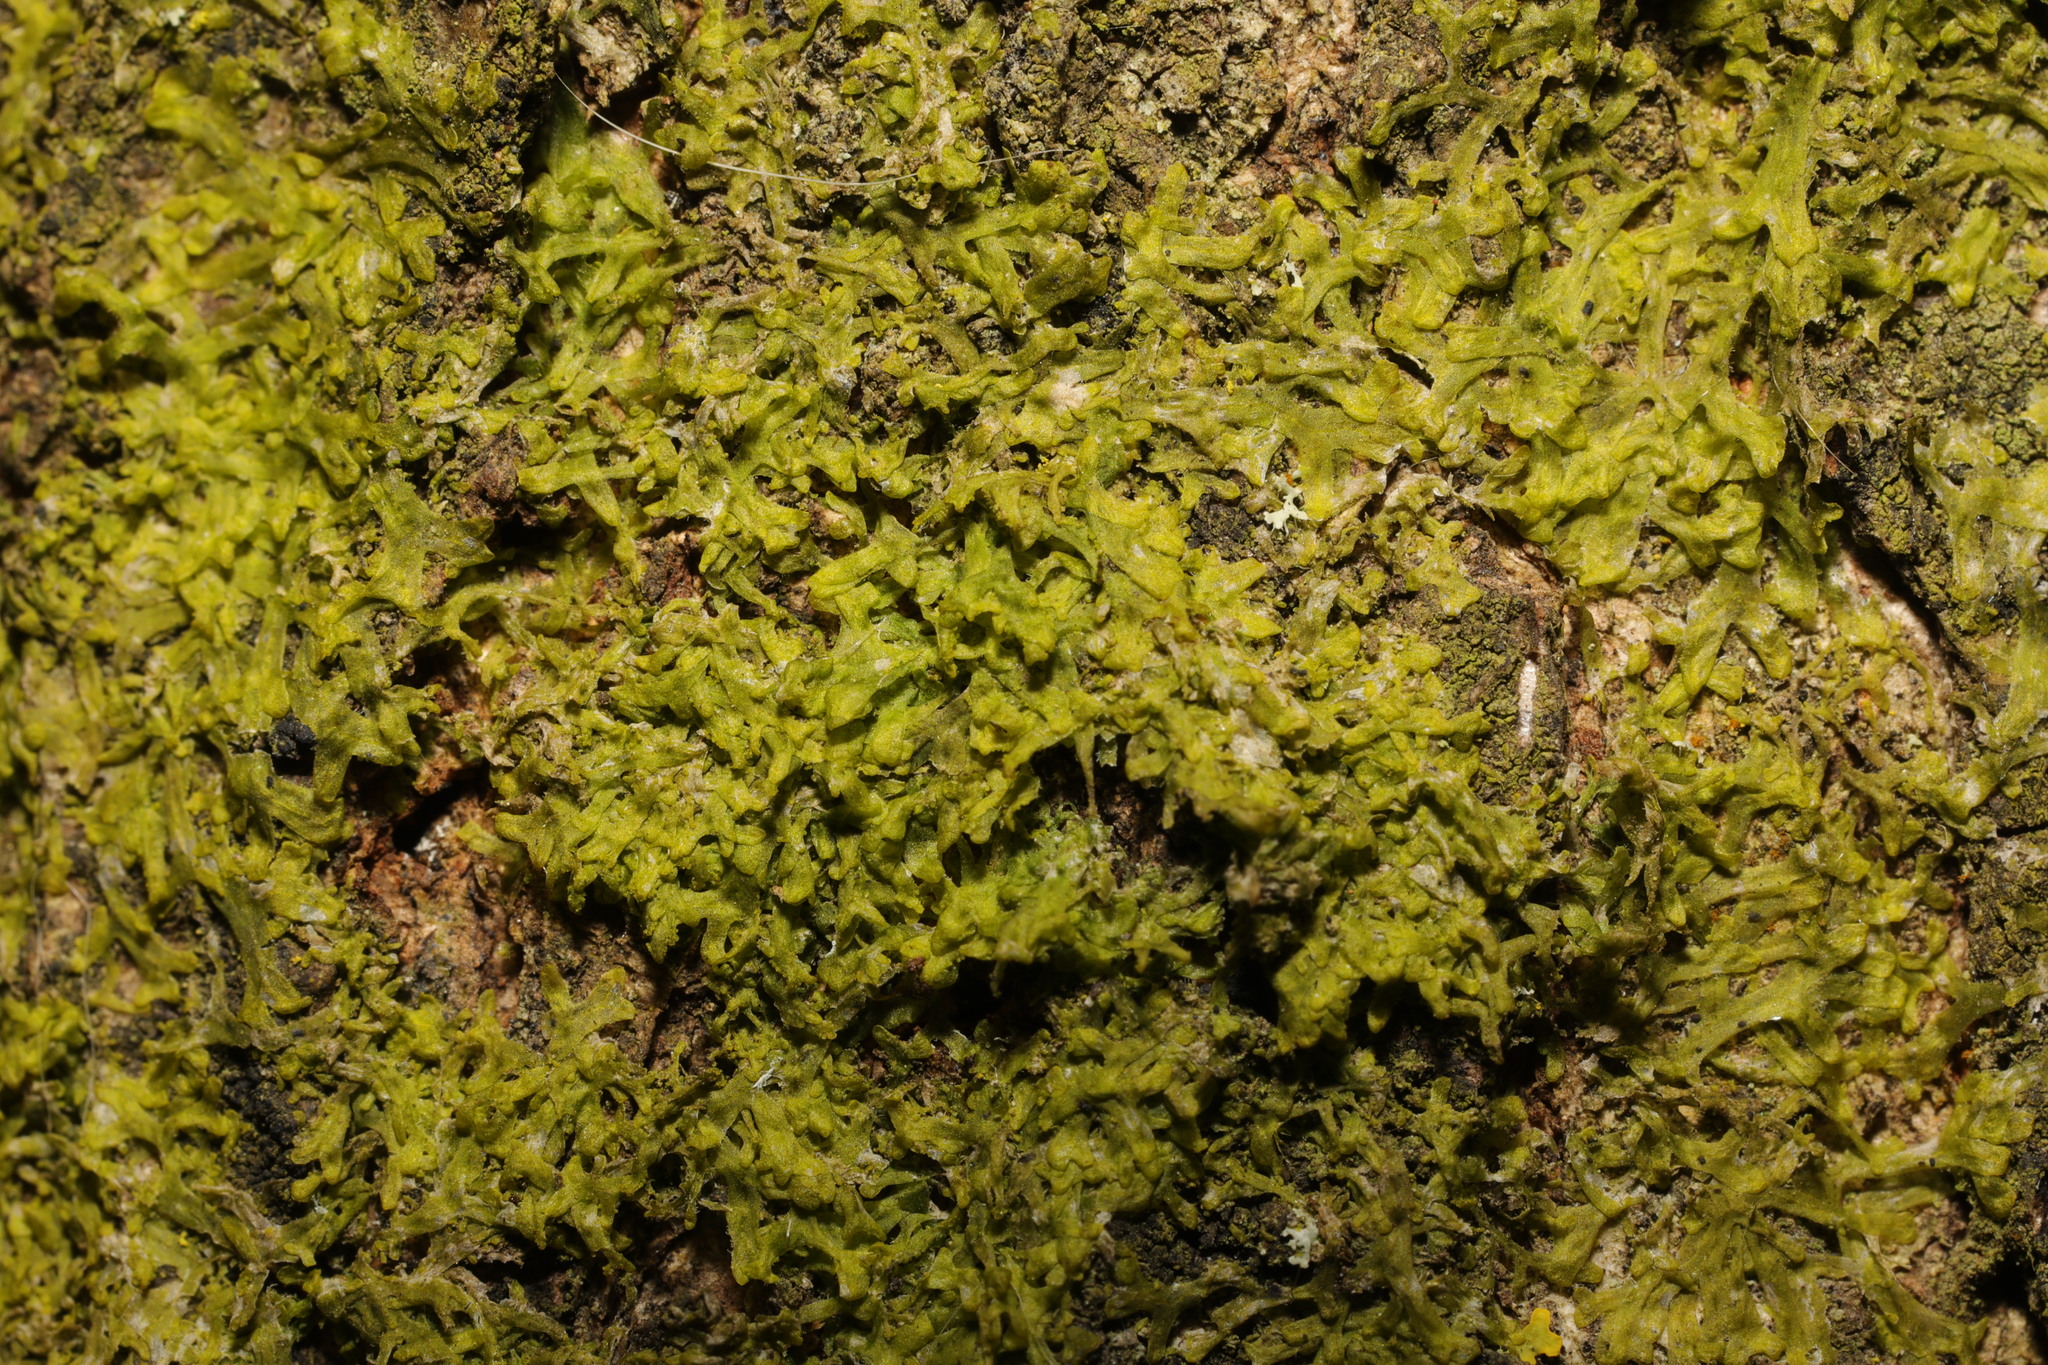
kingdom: Plantae
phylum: Marchantiophyta
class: Jungermanniopsida
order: Metzgeriales
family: Metzgeriaceae
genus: Metzgeria
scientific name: Metzgeria furcata
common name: Forked veilwort
